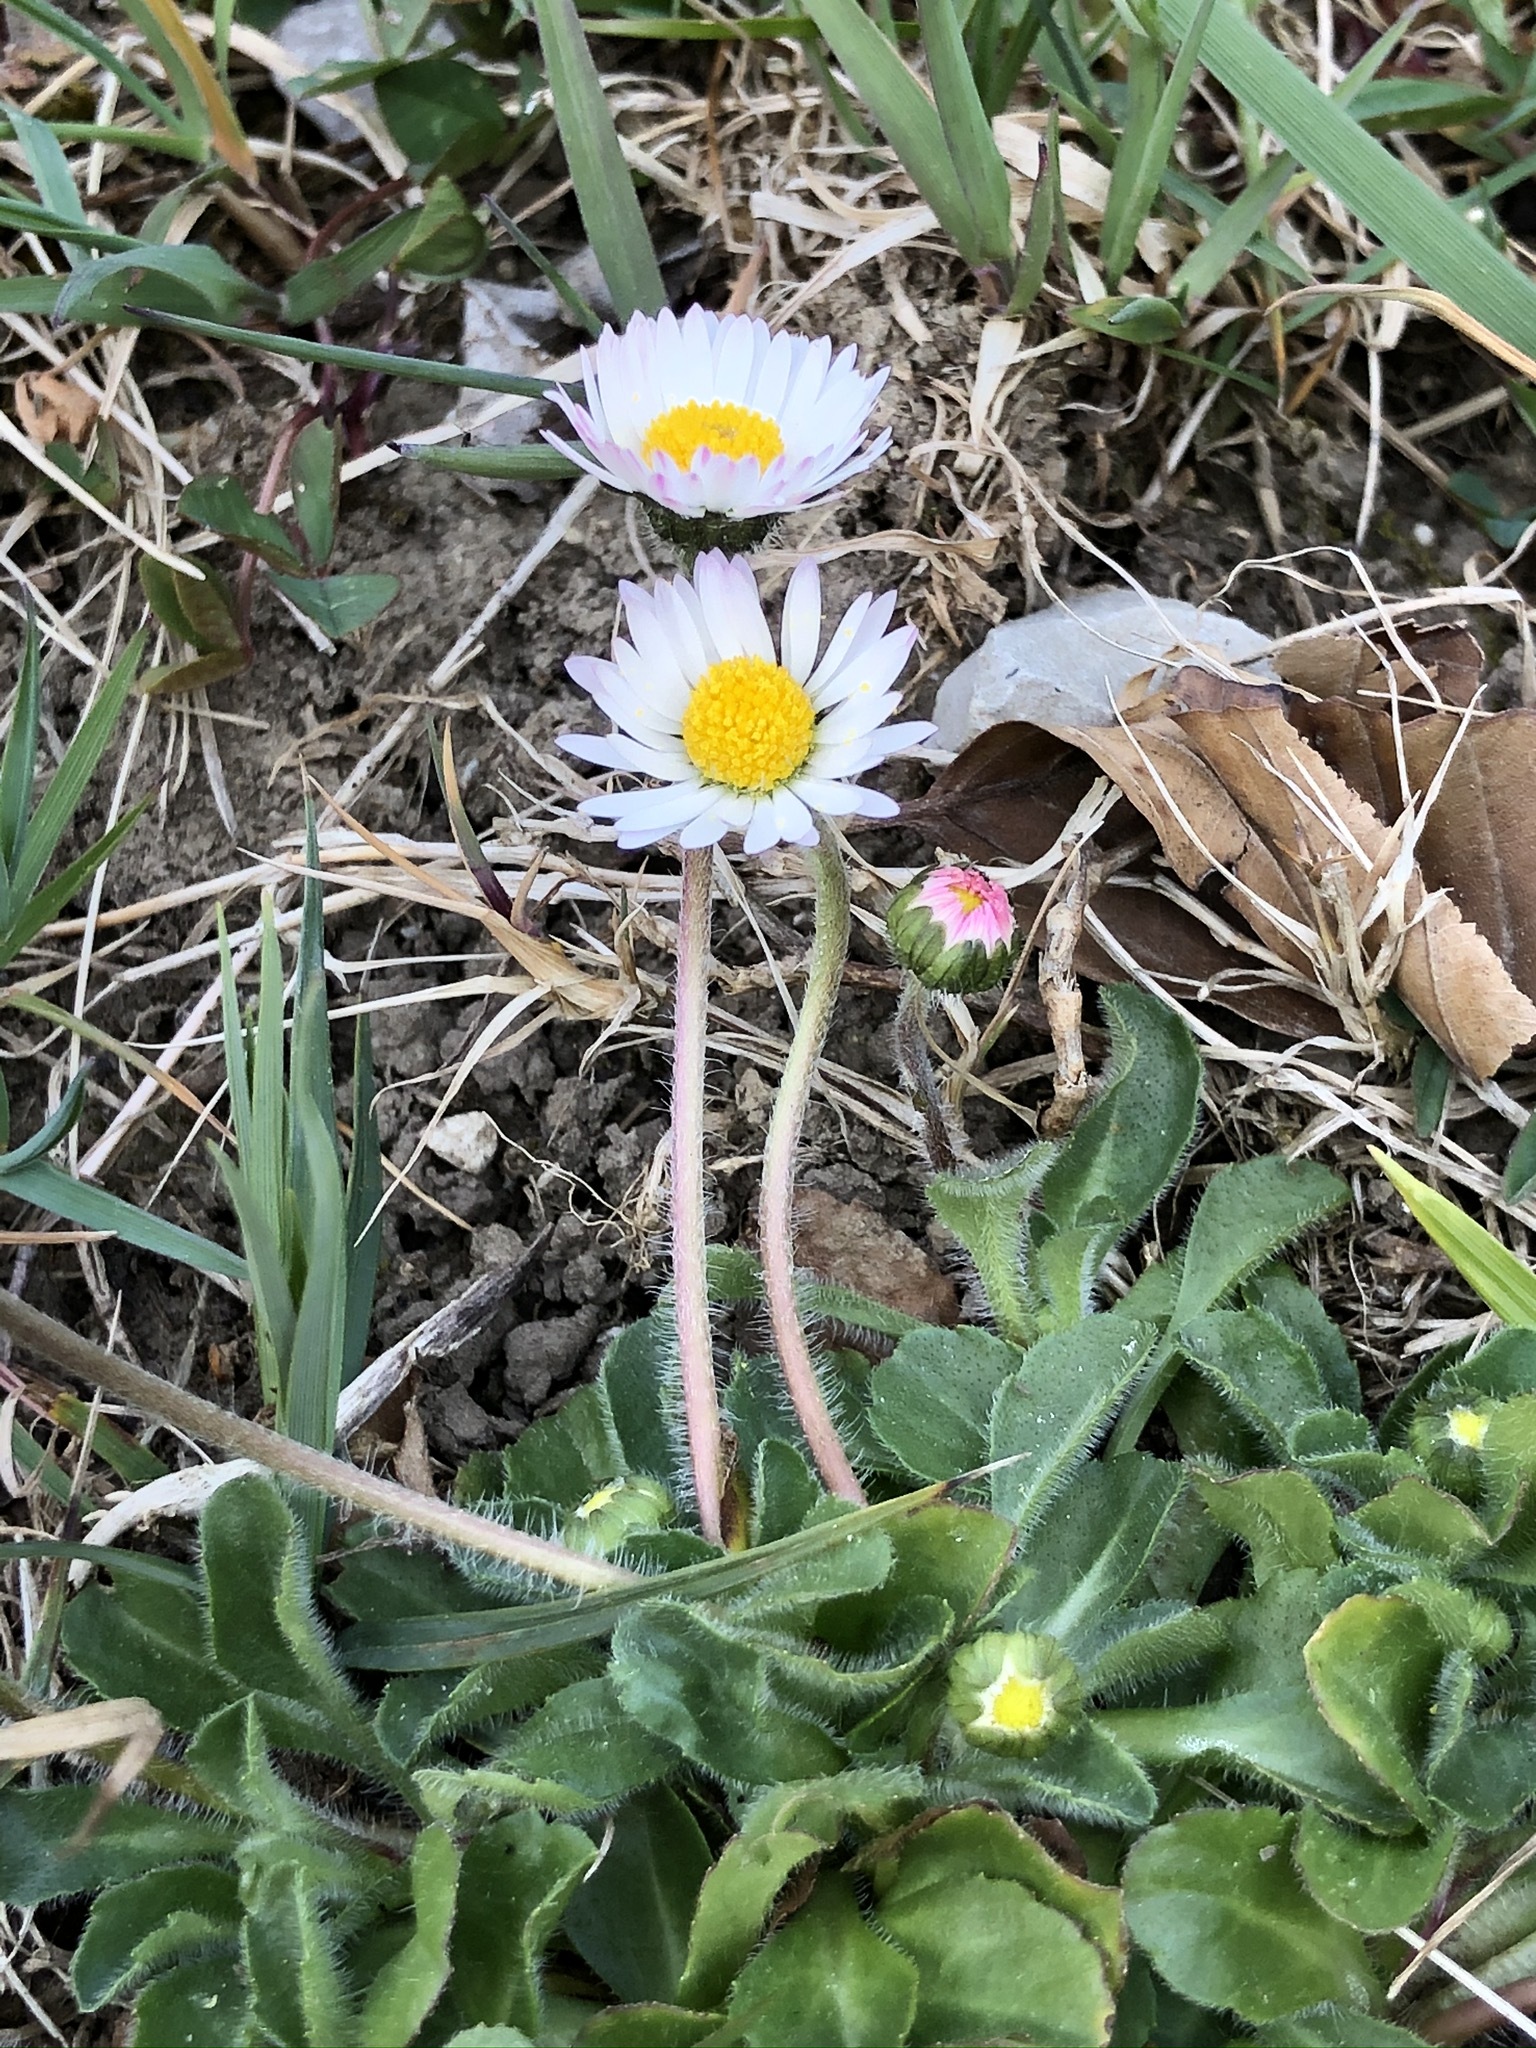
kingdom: Plantae
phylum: Tracheophyta
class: Magnoliopsida
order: Asterales
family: Asteraceae
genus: Bellis
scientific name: Bellis perennis
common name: Lawndaisy
